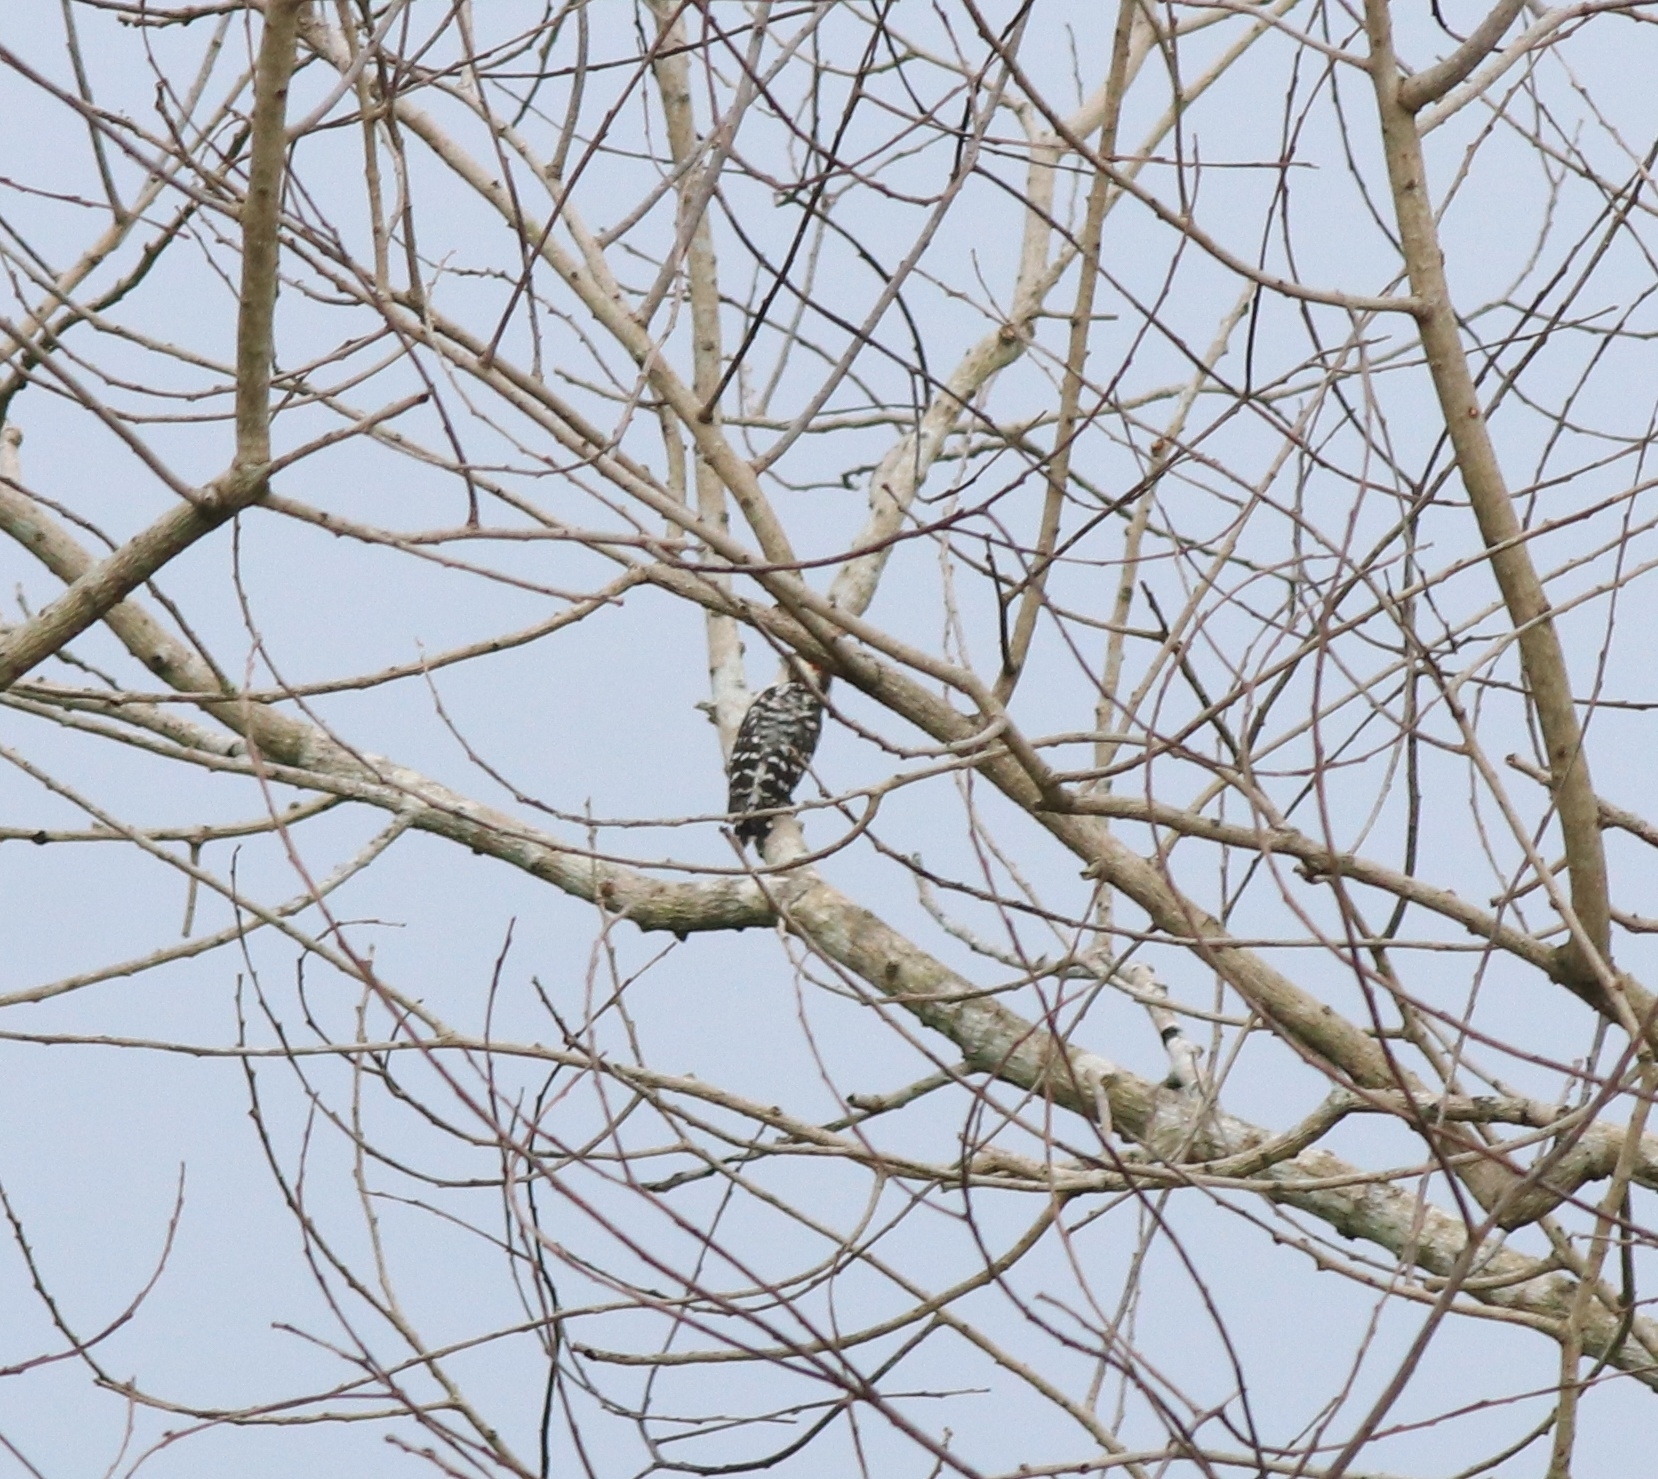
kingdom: Animalia
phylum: Chordata
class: Aves
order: Piciformes
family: Picidae
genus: Yungipicus
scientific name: Yungipicus nanus
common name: Brown-capped pygmy woodpecker
